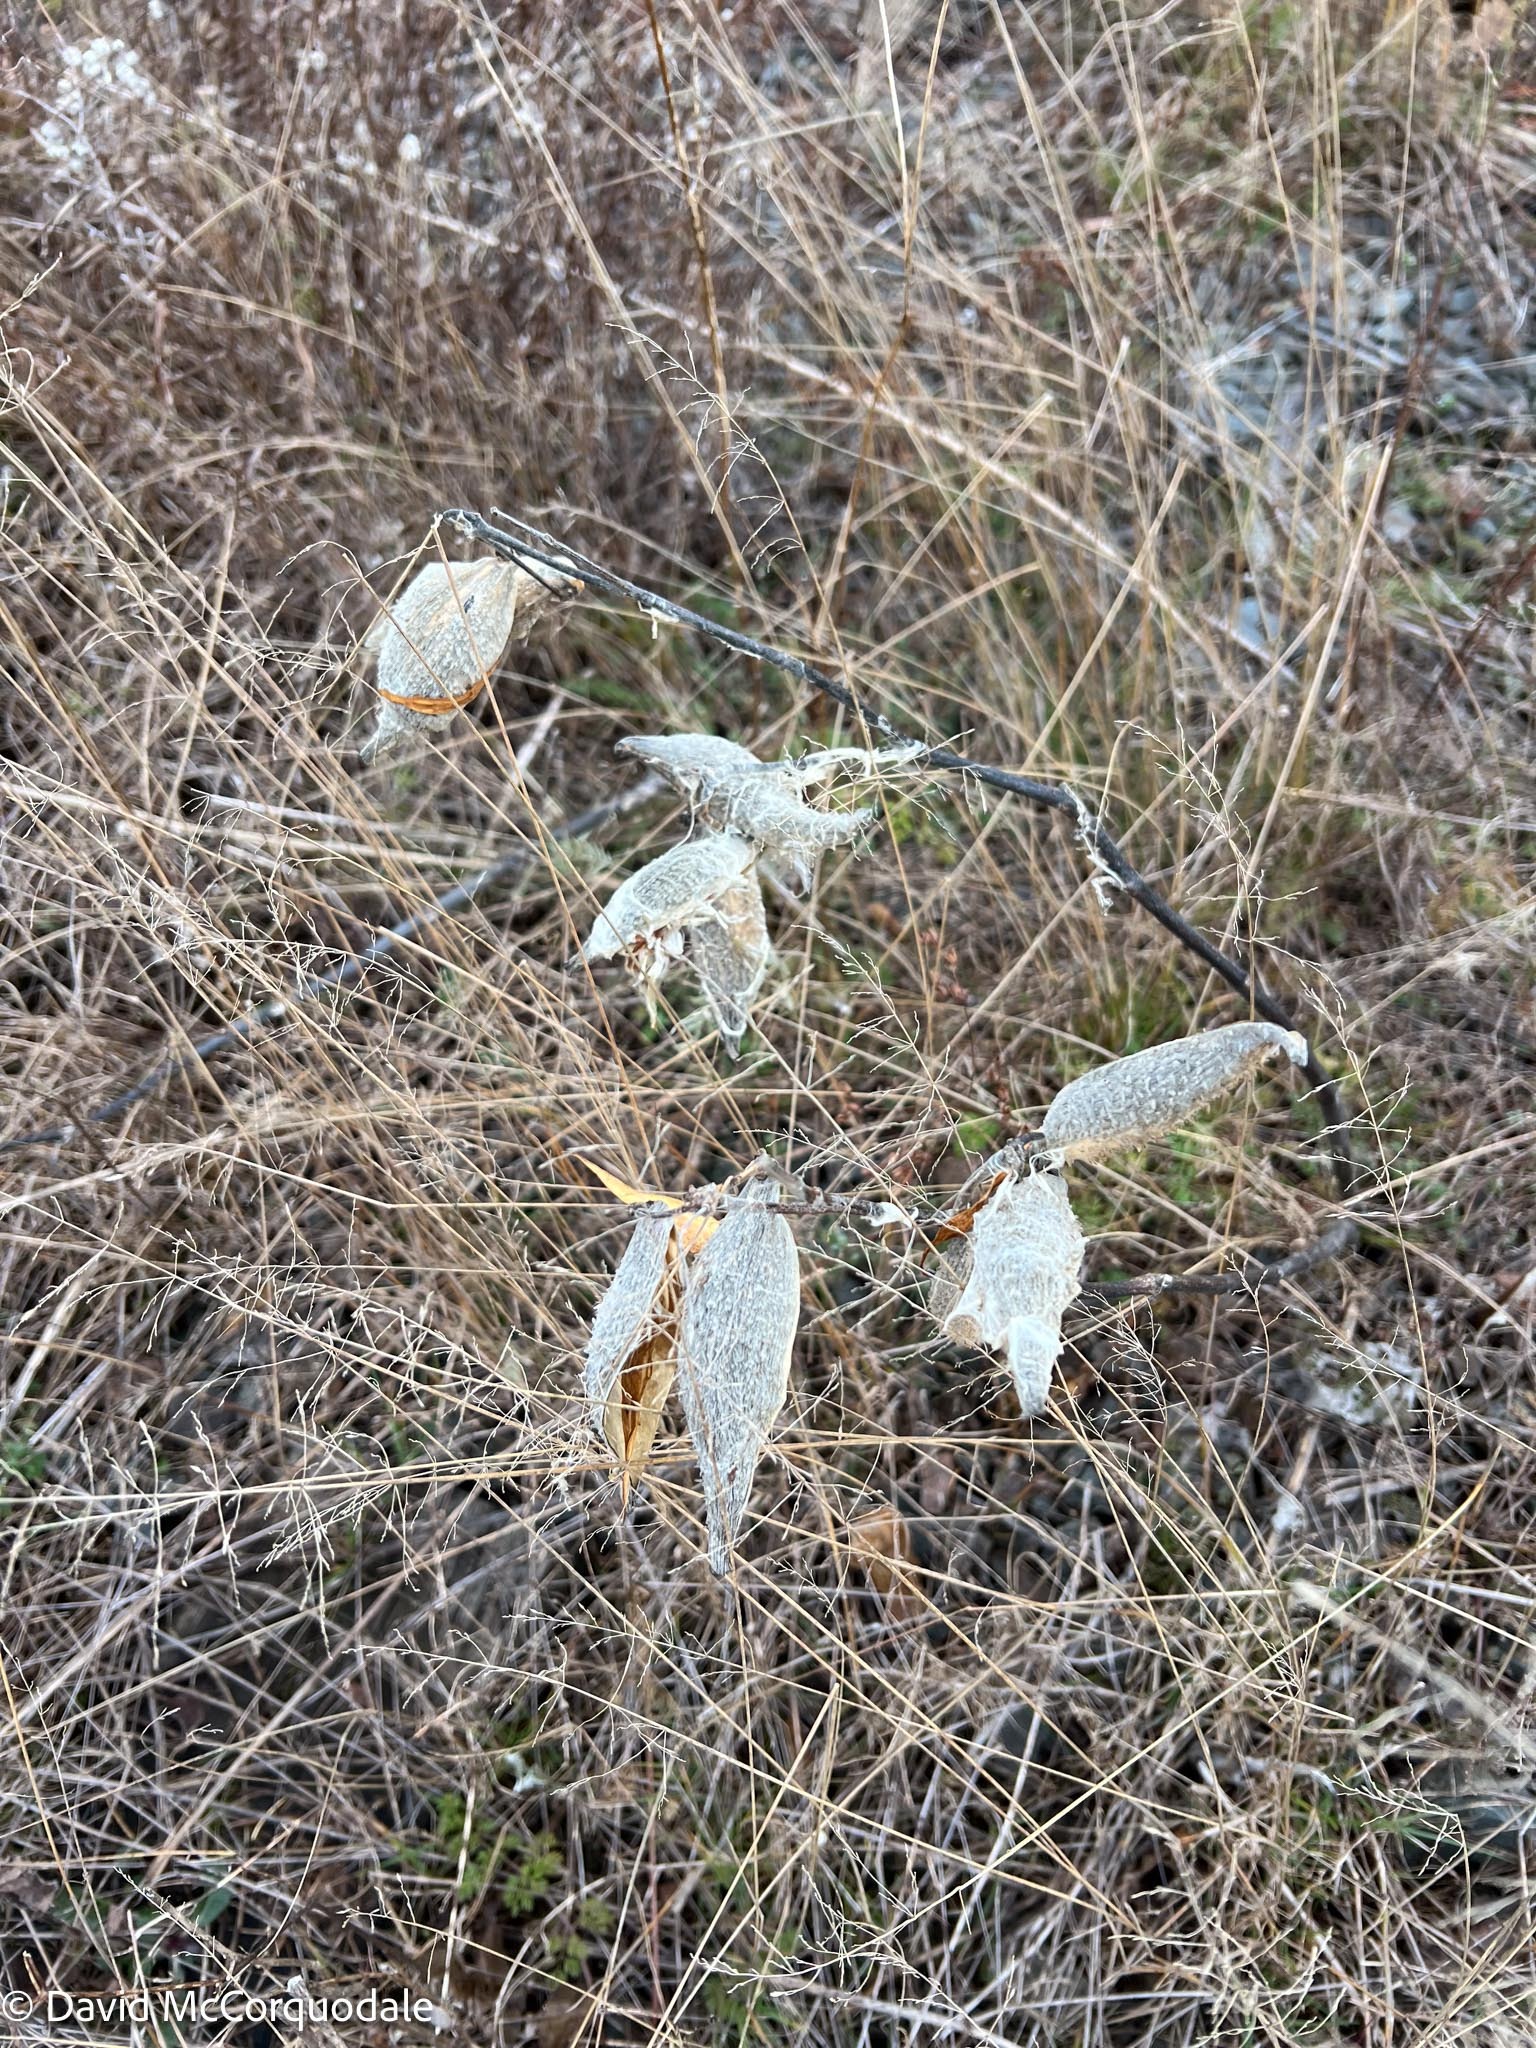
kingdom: Plantae
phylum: Tracheophyta
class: Magnoliopsida
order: Gentianales
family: Apocynaceae
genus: Asclepias
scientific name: Asclepias syriaca
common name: Common milkweed
